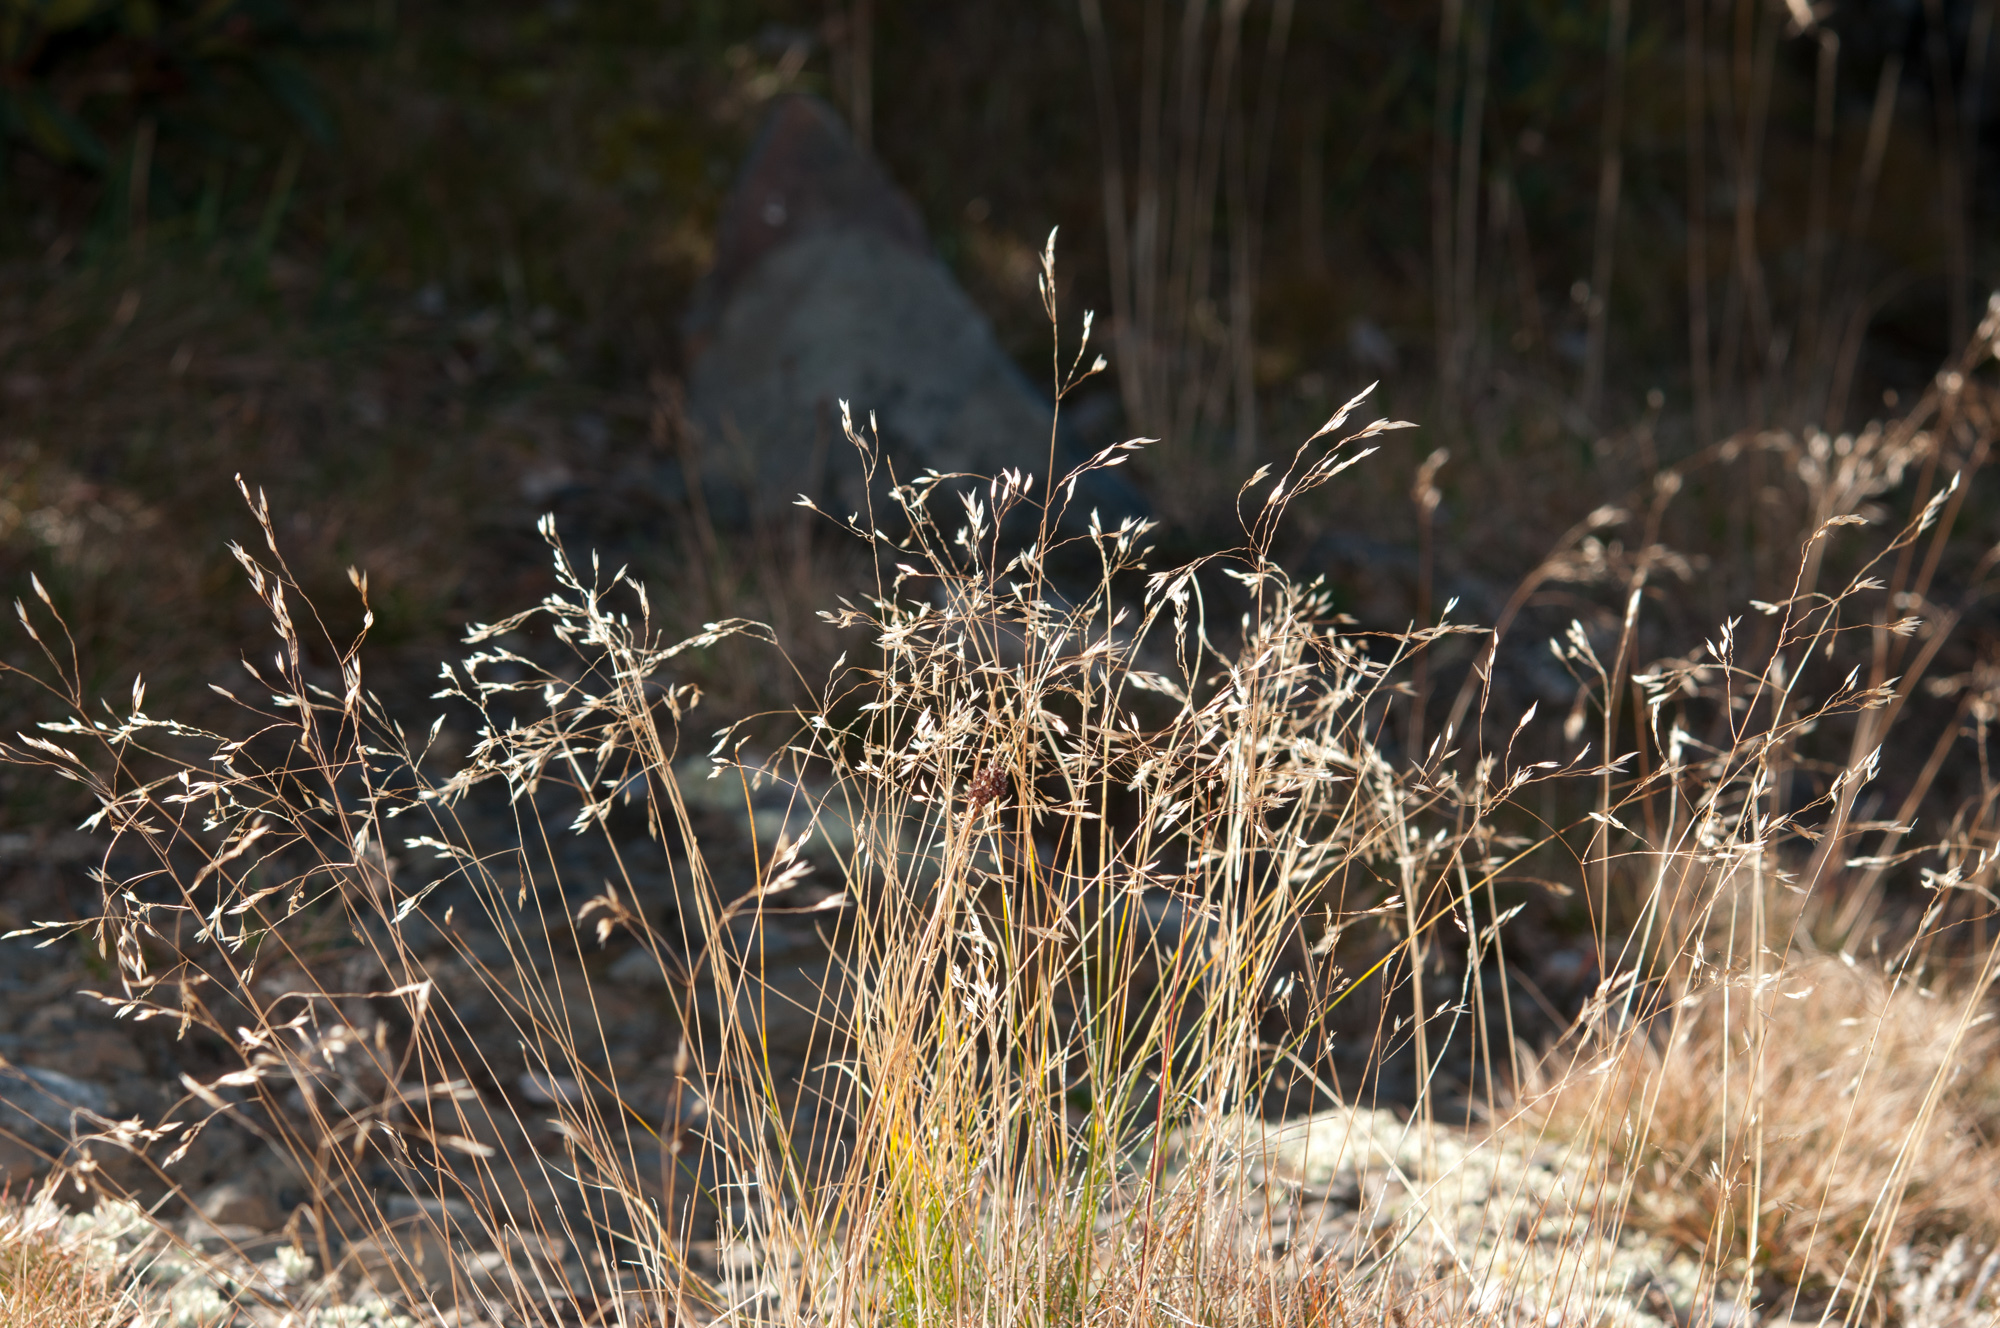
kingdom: Plantae
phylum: Tracheophyta
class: Liliopsida
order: Poales
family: Poaceae
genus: Avenella
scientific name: Avenella flexuosa
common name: Wavy hairgrass
